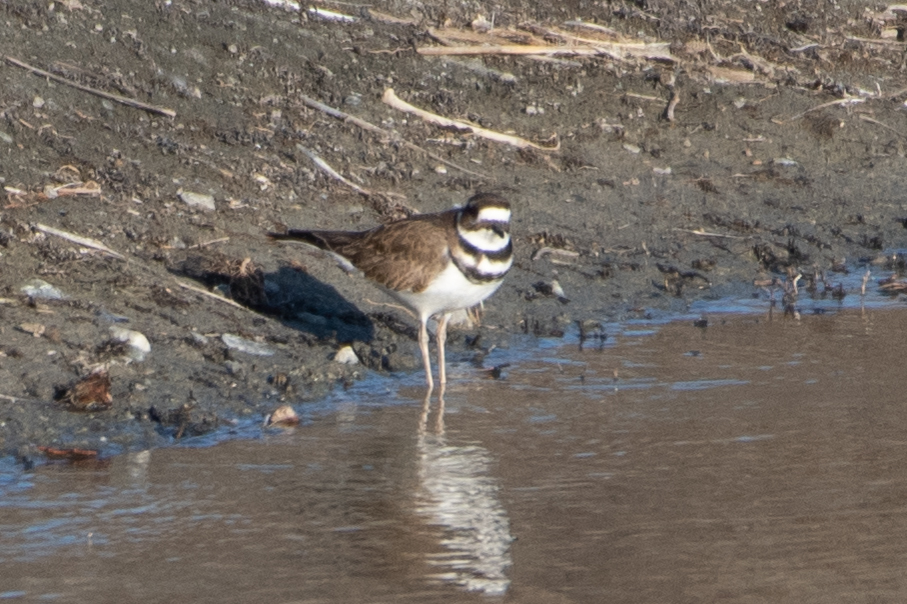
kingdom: Animalia
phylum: Chordata
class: Aves
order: Charadriiformes
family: Charadriidae
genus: Charadrius
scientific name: Charadrius vociferus
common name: Killdeer
